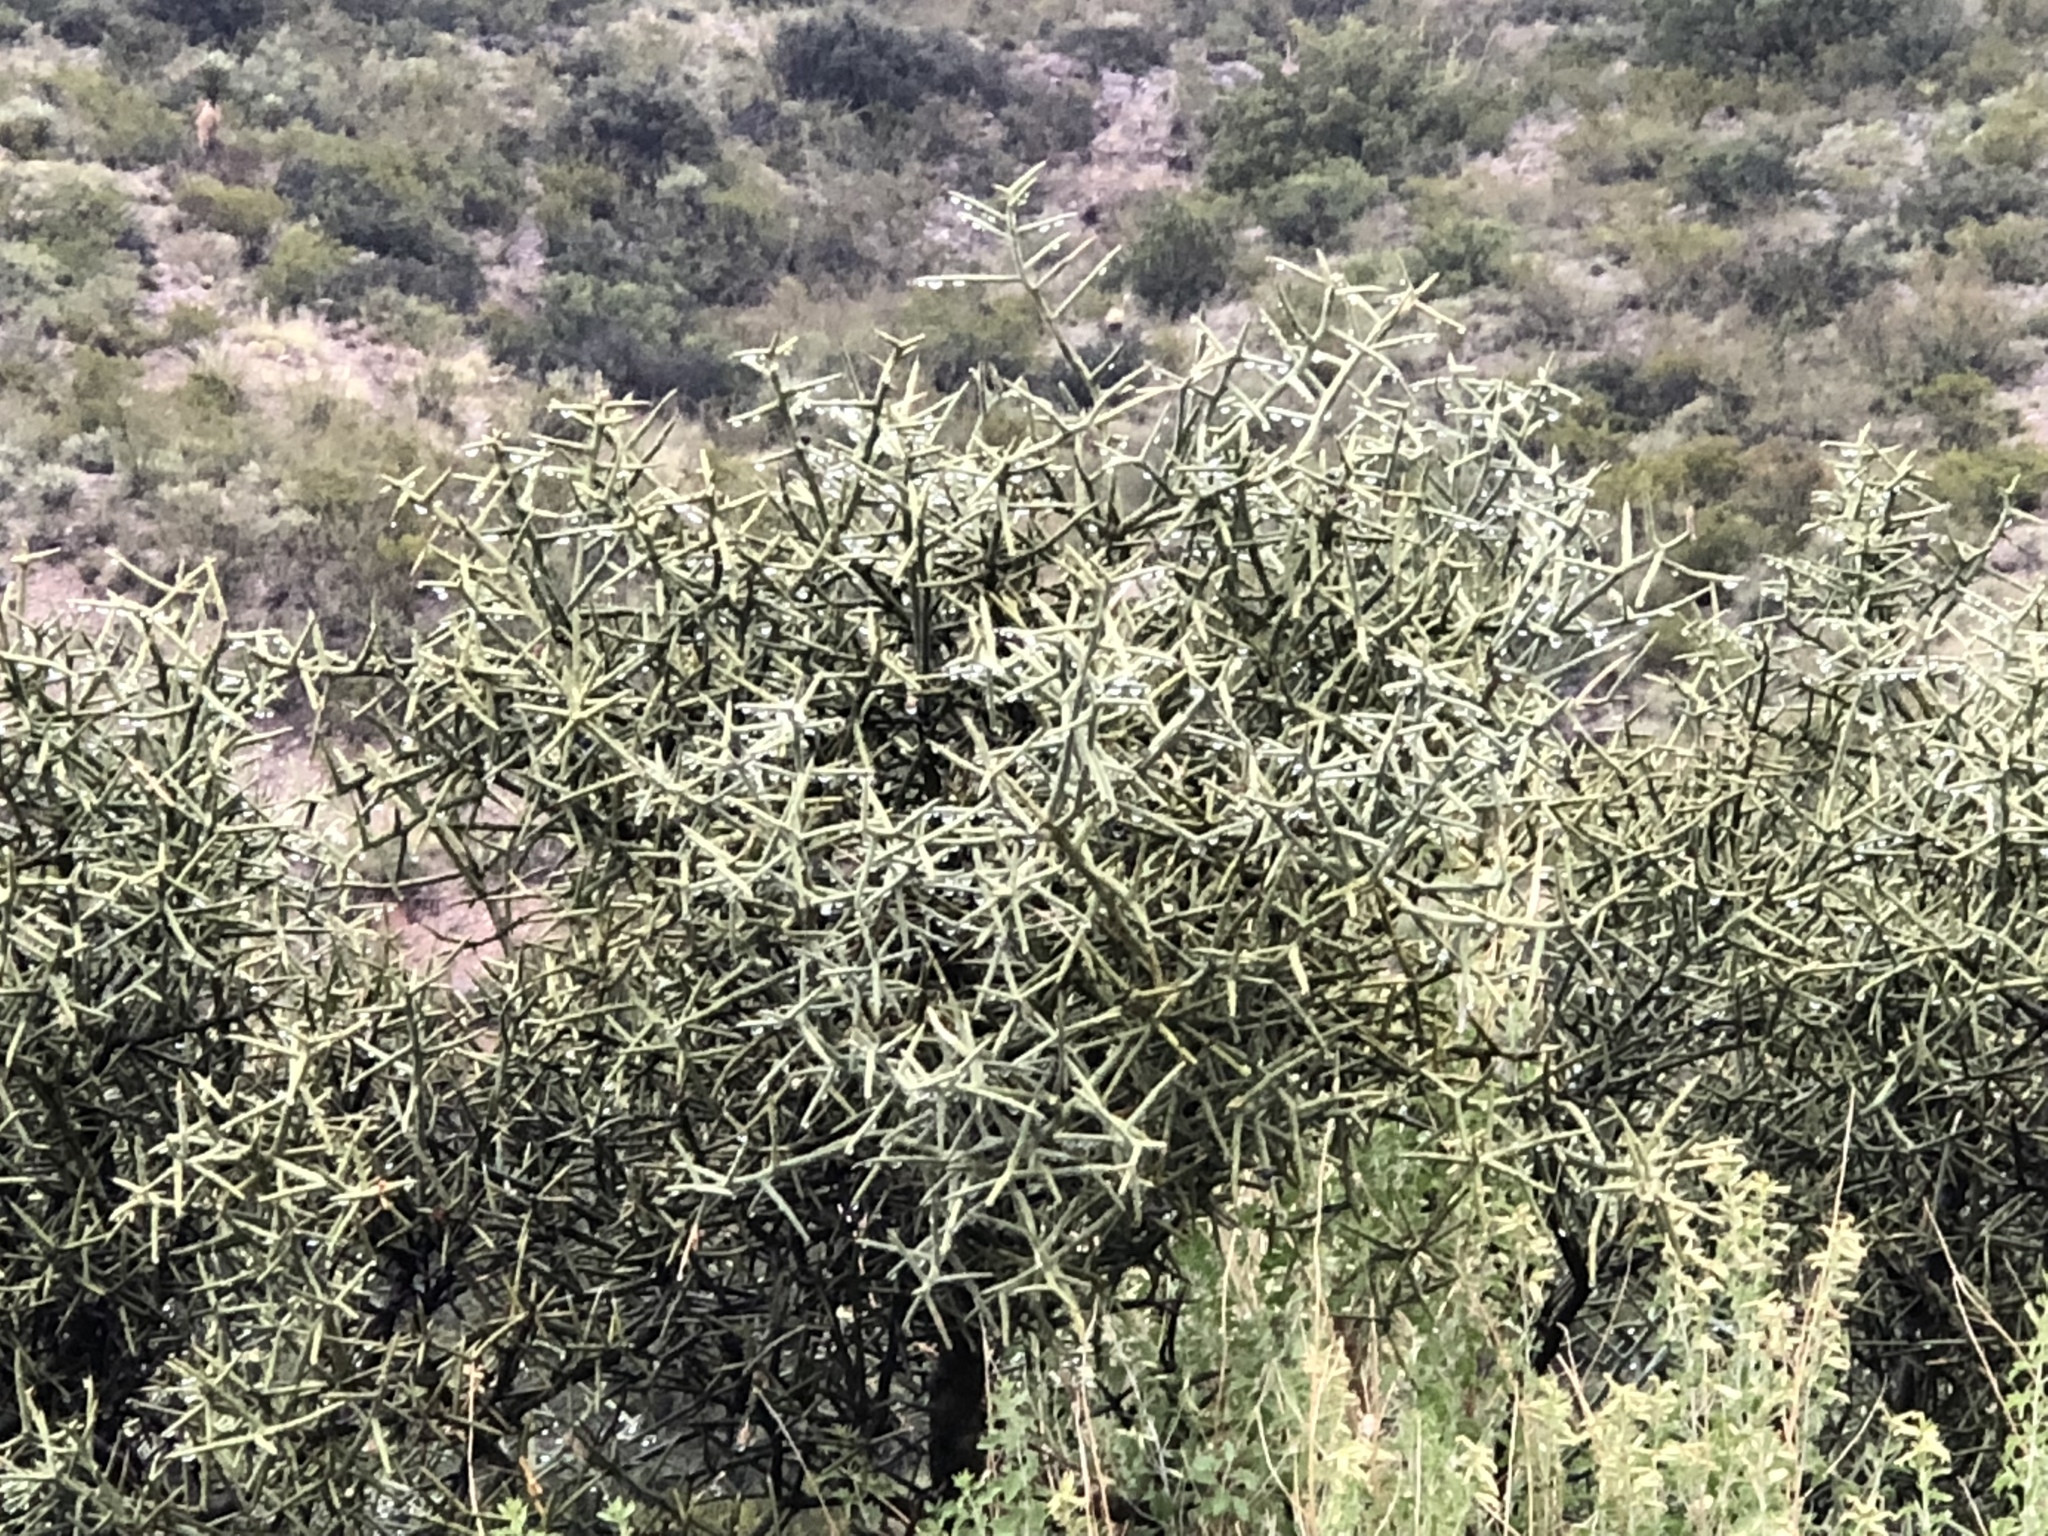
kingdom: Plantae
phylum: Tracheophyta
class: Magnoliopsida
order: Brassicales
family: Koeberliniaceae
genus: Koeberlinia
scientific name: Koeberlinia spinosa
